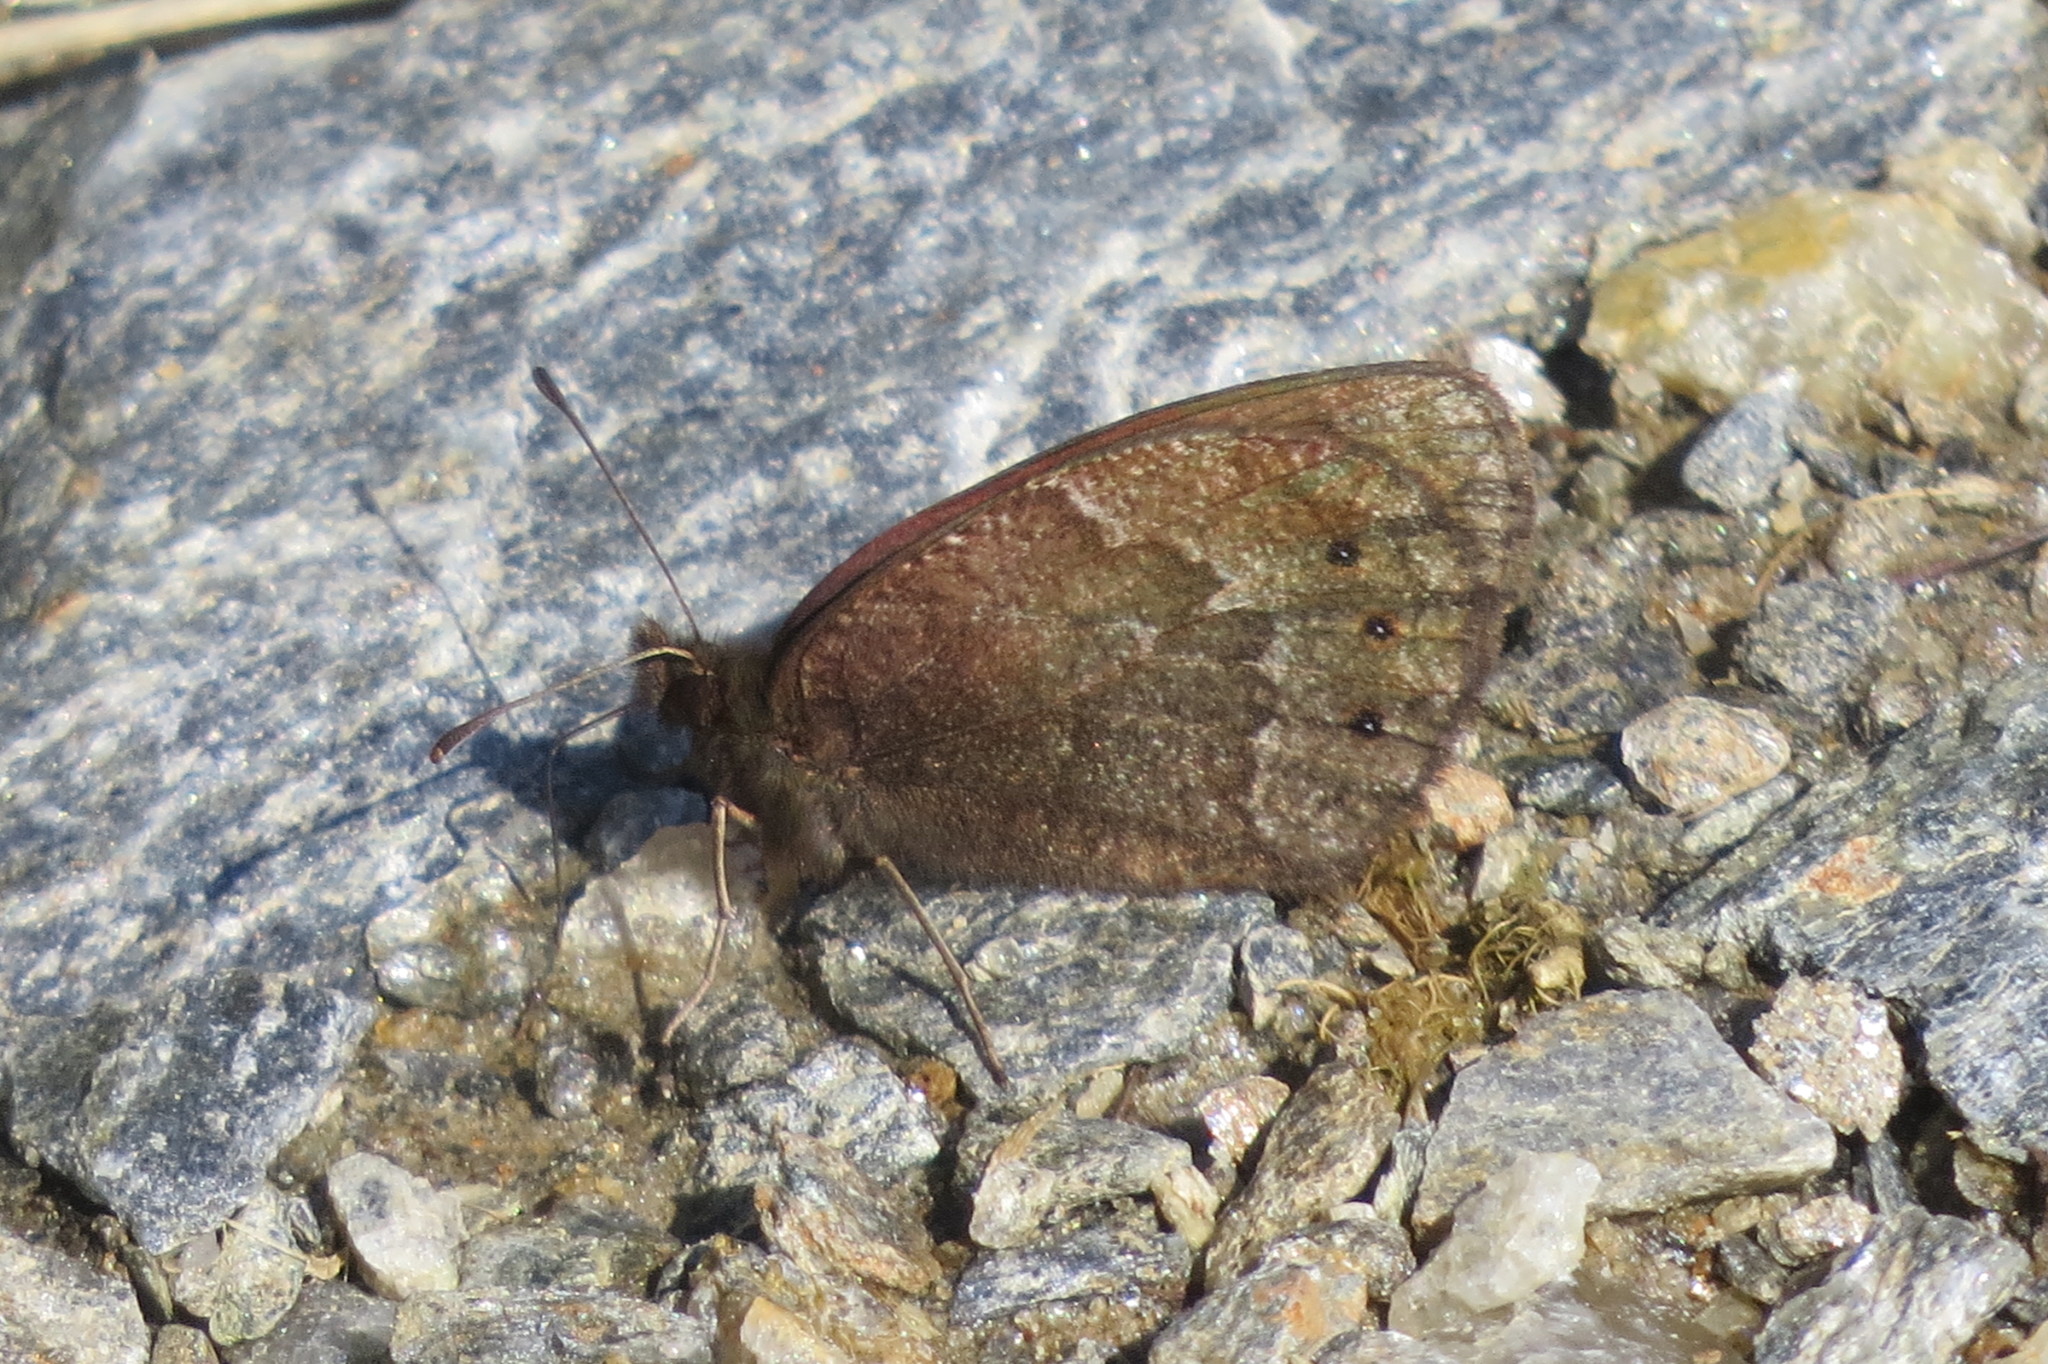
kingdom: Animalia
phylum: Arthropoda
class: Insecta
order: Lepidoptera
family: Nymphalidae
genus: Erebia
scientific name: Erebia montanus
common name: Marbled ringlet
